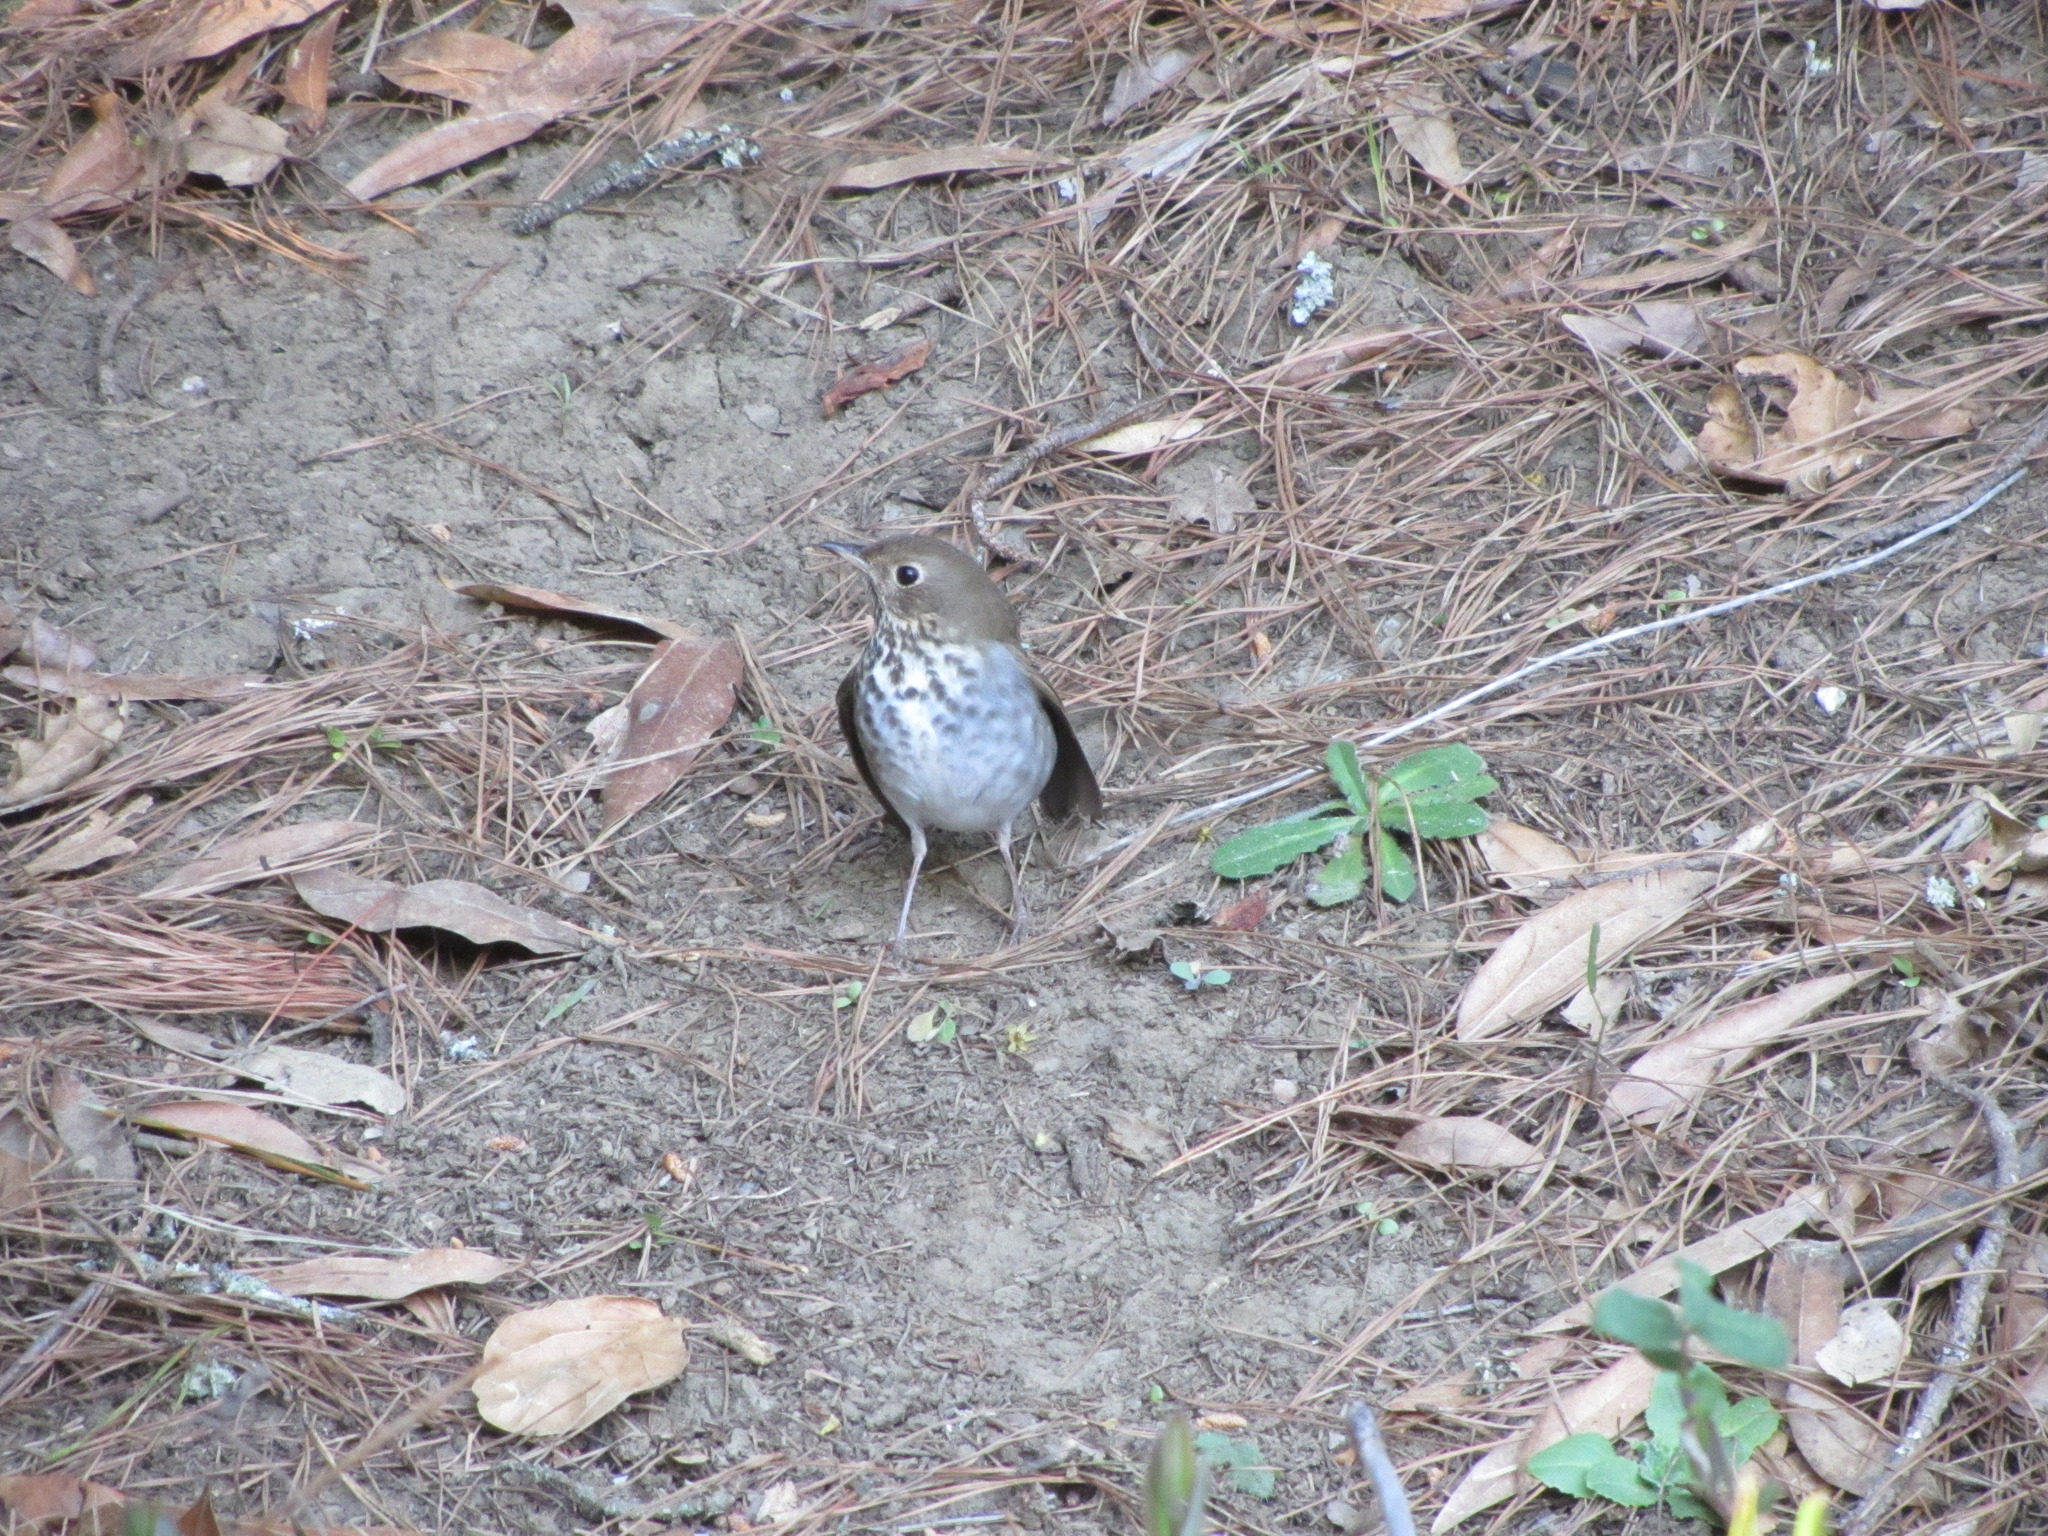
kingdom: Animalia
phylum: Chordata
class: Aves
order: Passeriformes
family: Turdidae
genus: Catharus
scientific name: Catharus guttatus
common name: Hermit thrush
